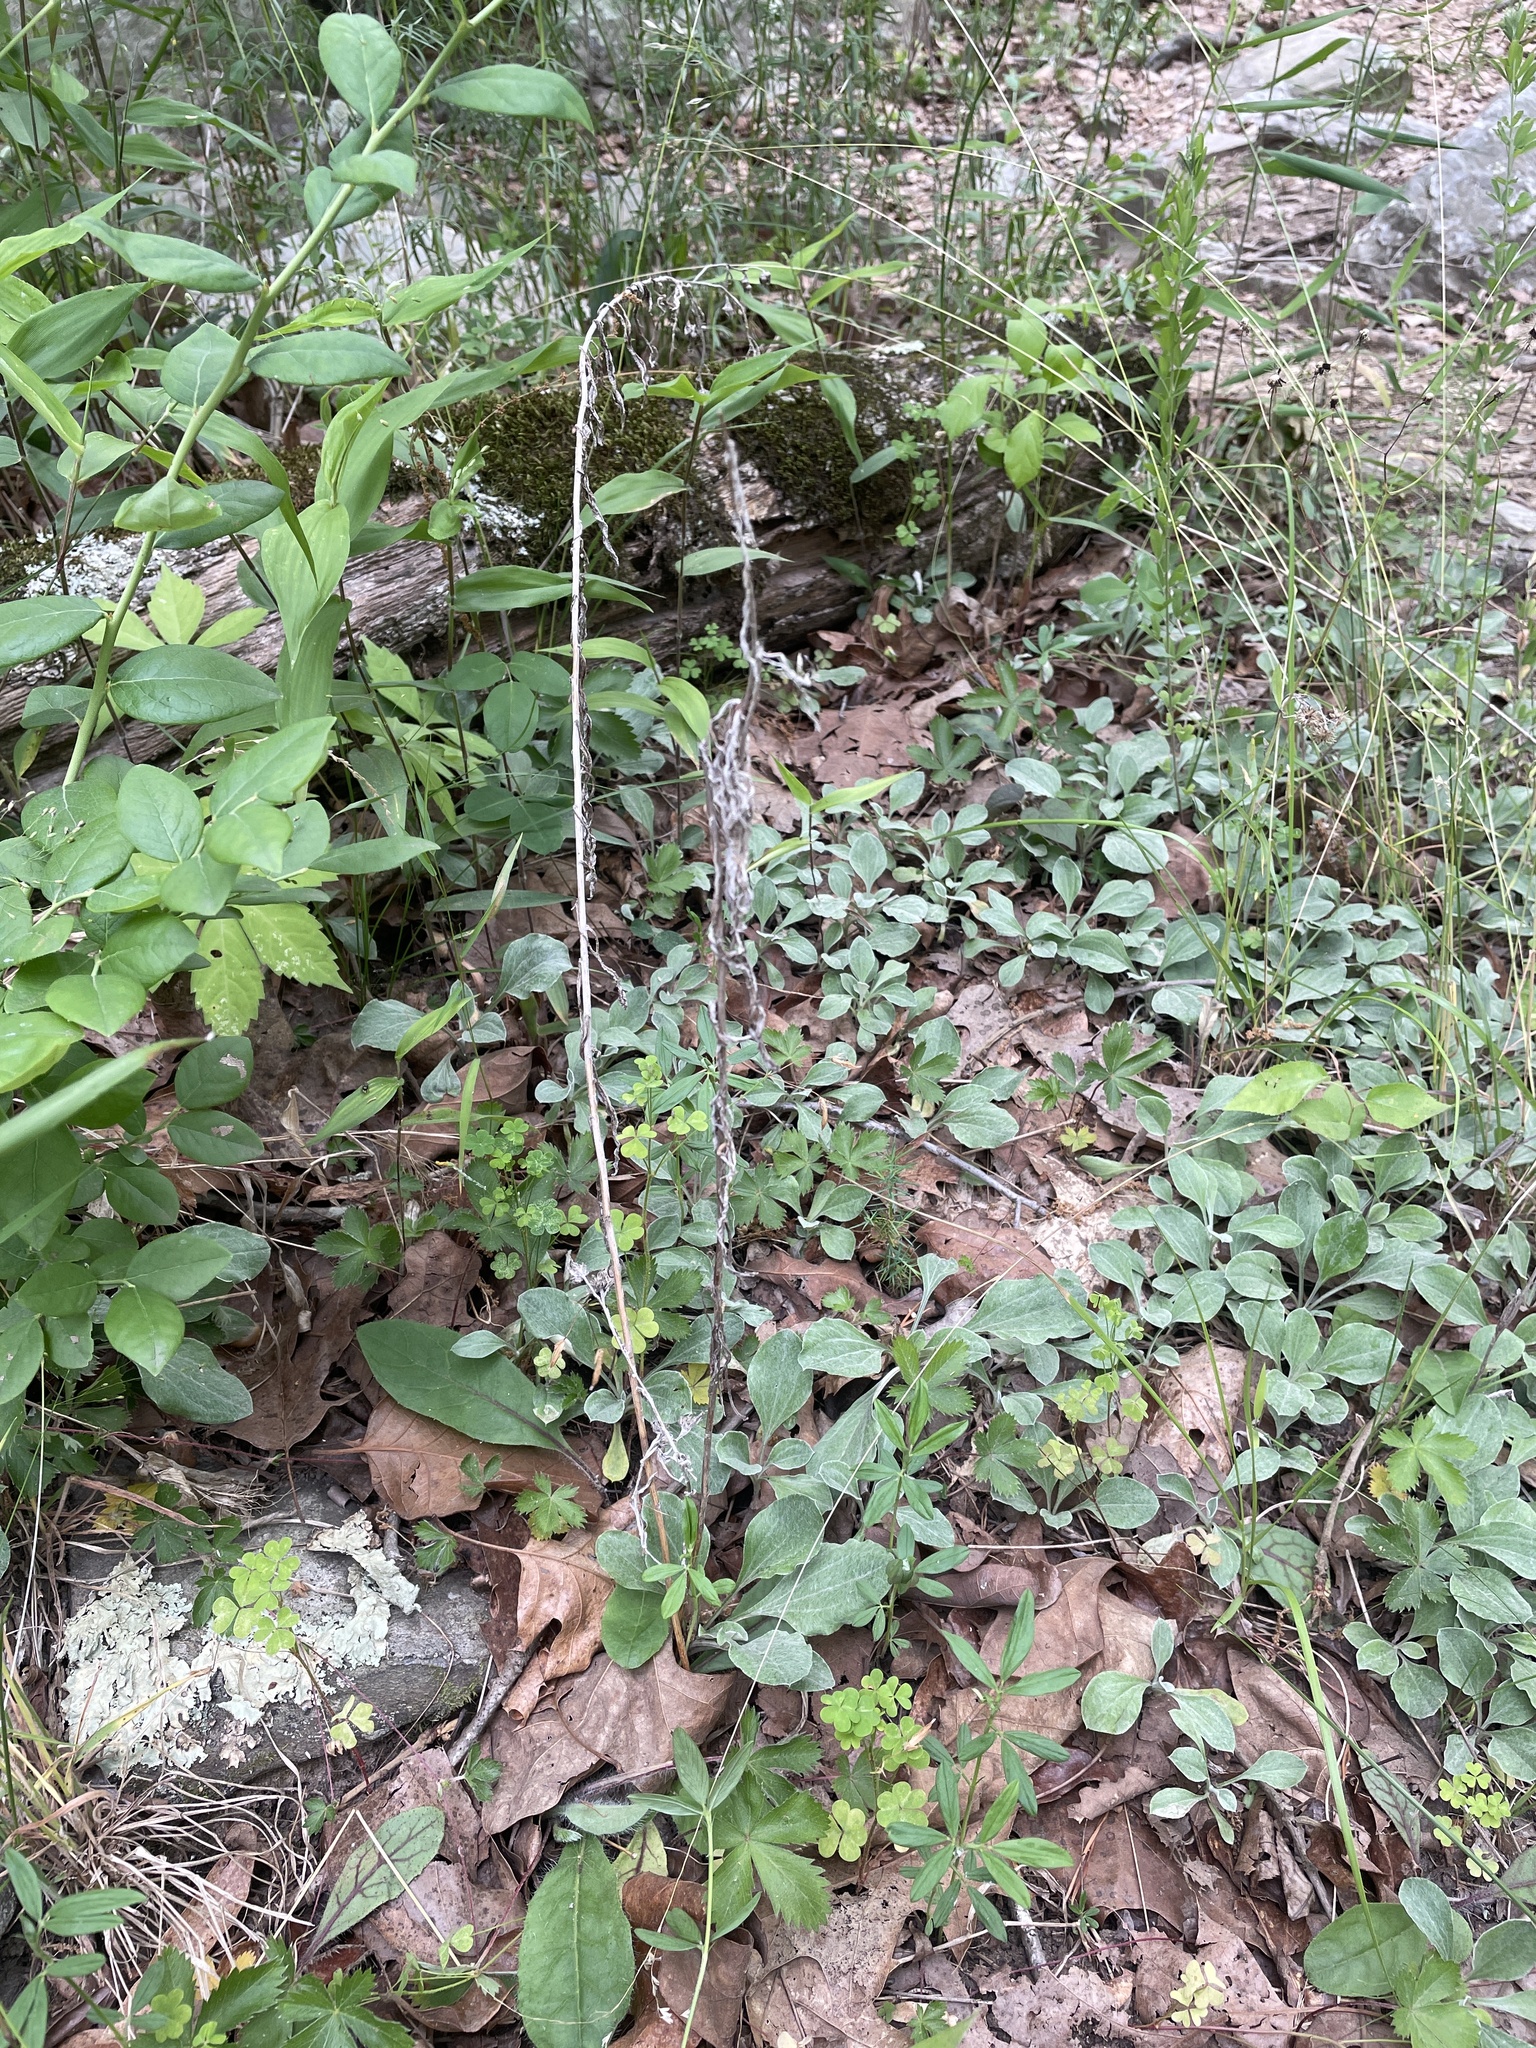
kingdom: Plantae
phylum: Tracheophyta
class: Magnoliopsida
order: Asterales
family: Asteraceae
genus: Antennaria
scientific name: Antennaria plantaginifolia
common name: Plantain-leaved pussytoes
